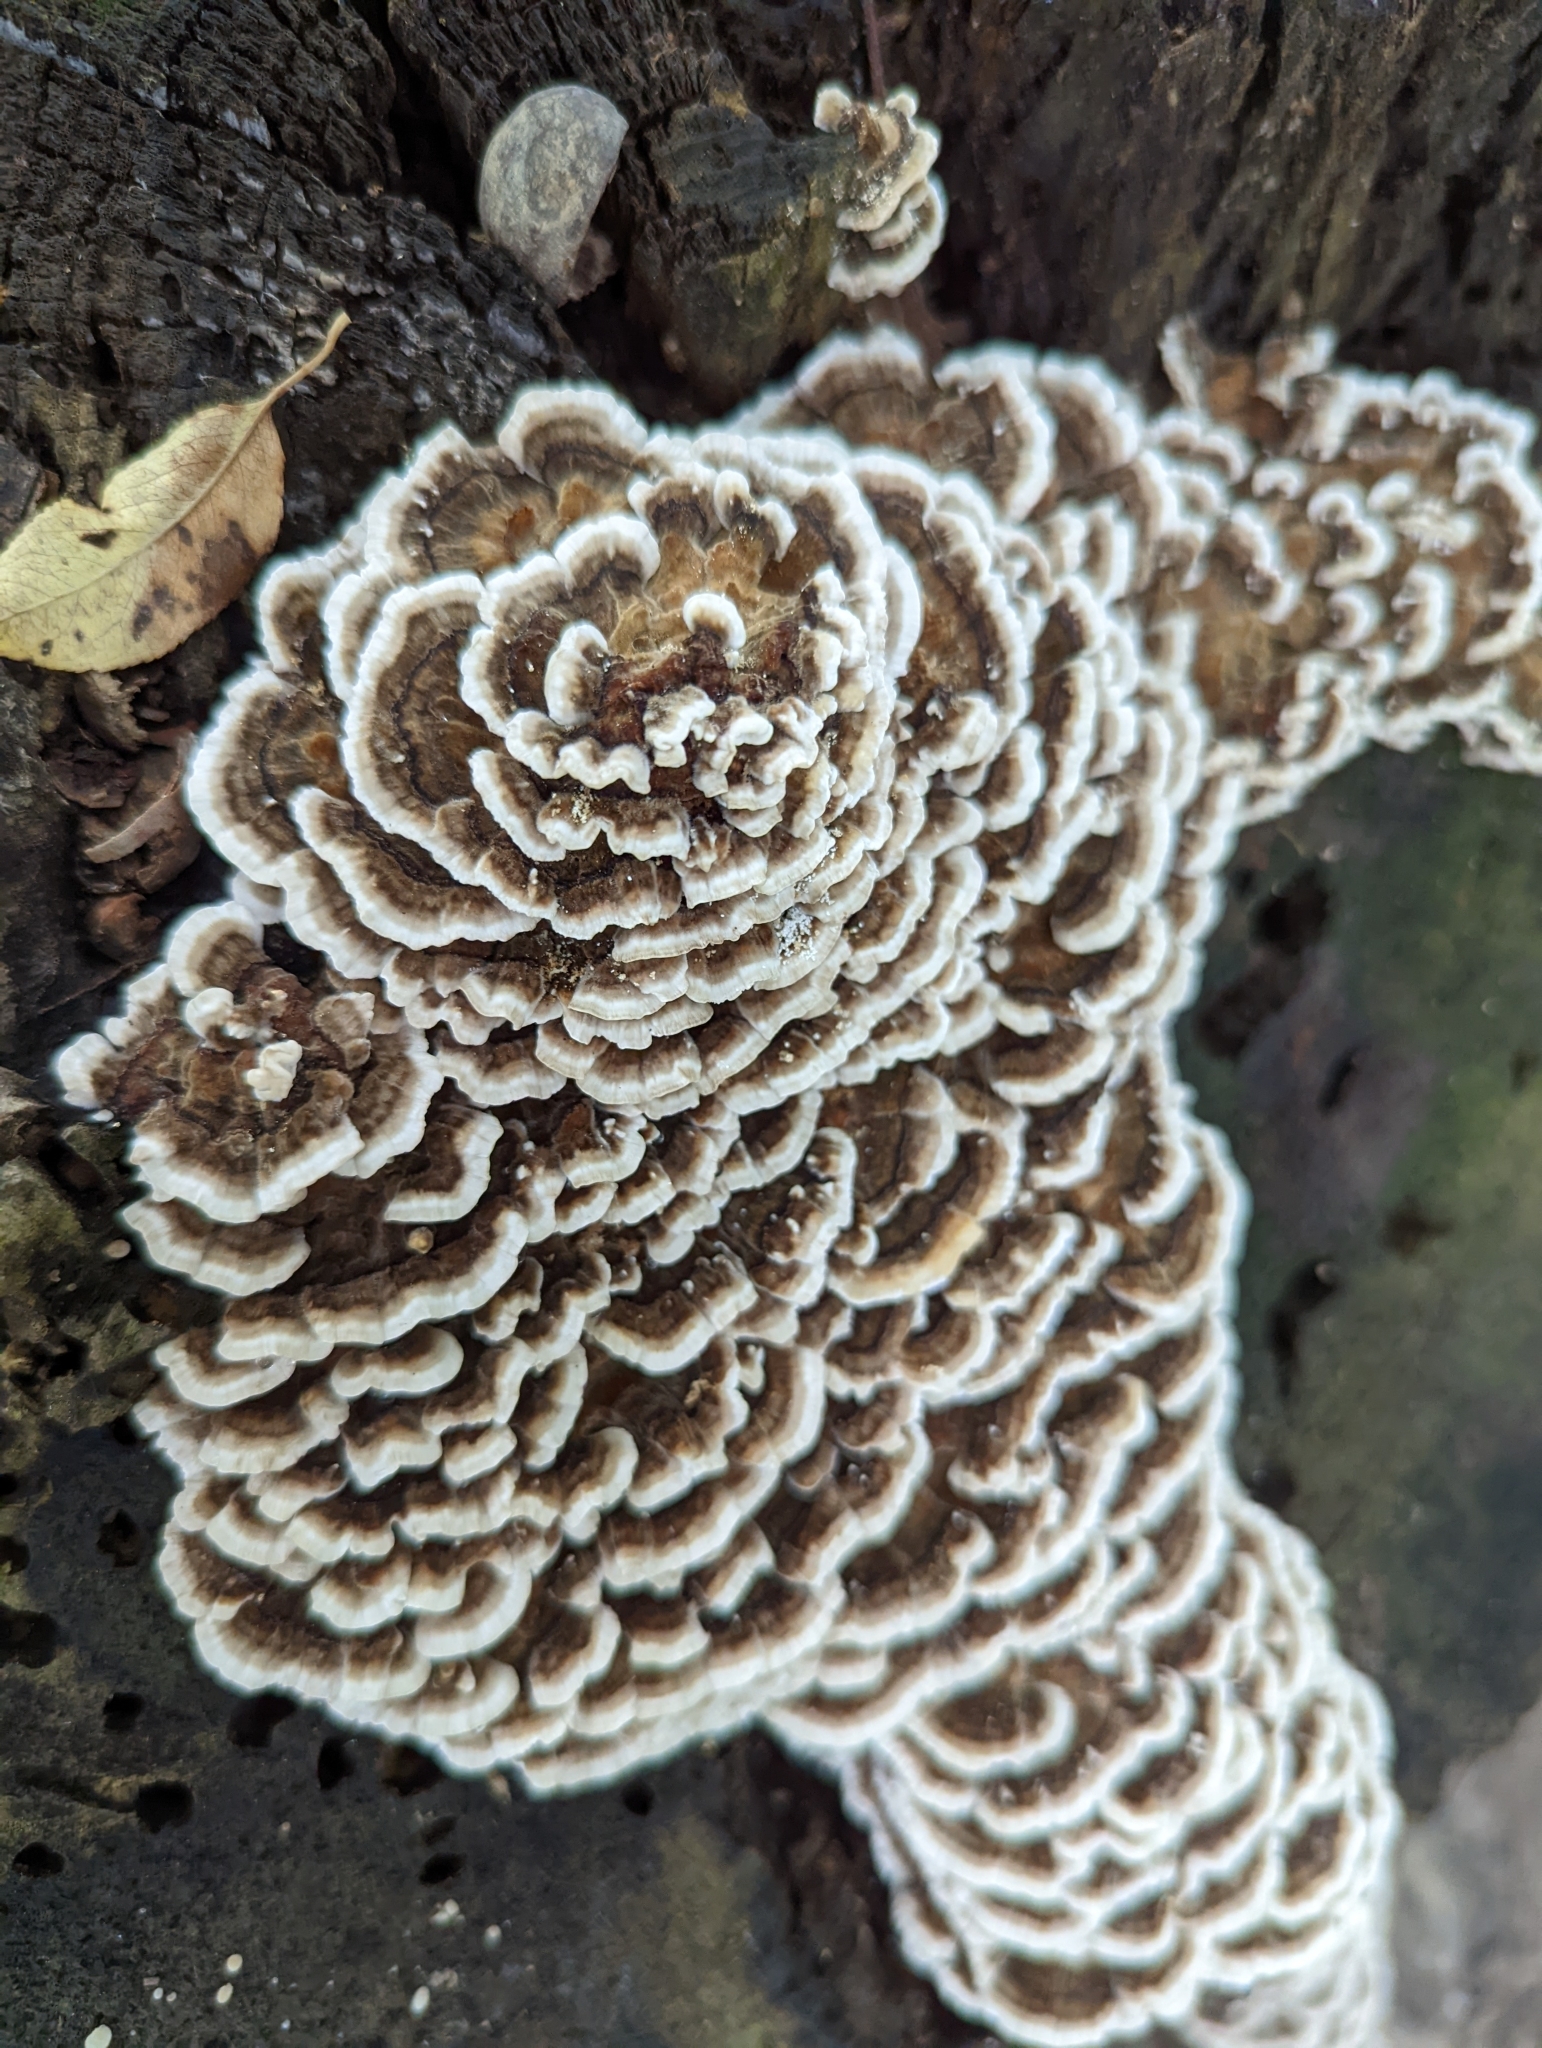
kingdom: Fungi
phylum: Basidiomycota
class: Agaricomycetes
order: Polyporales
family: Polyporaceae
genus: Trametes
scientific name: Trametes versicolor
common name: Turkeytail
